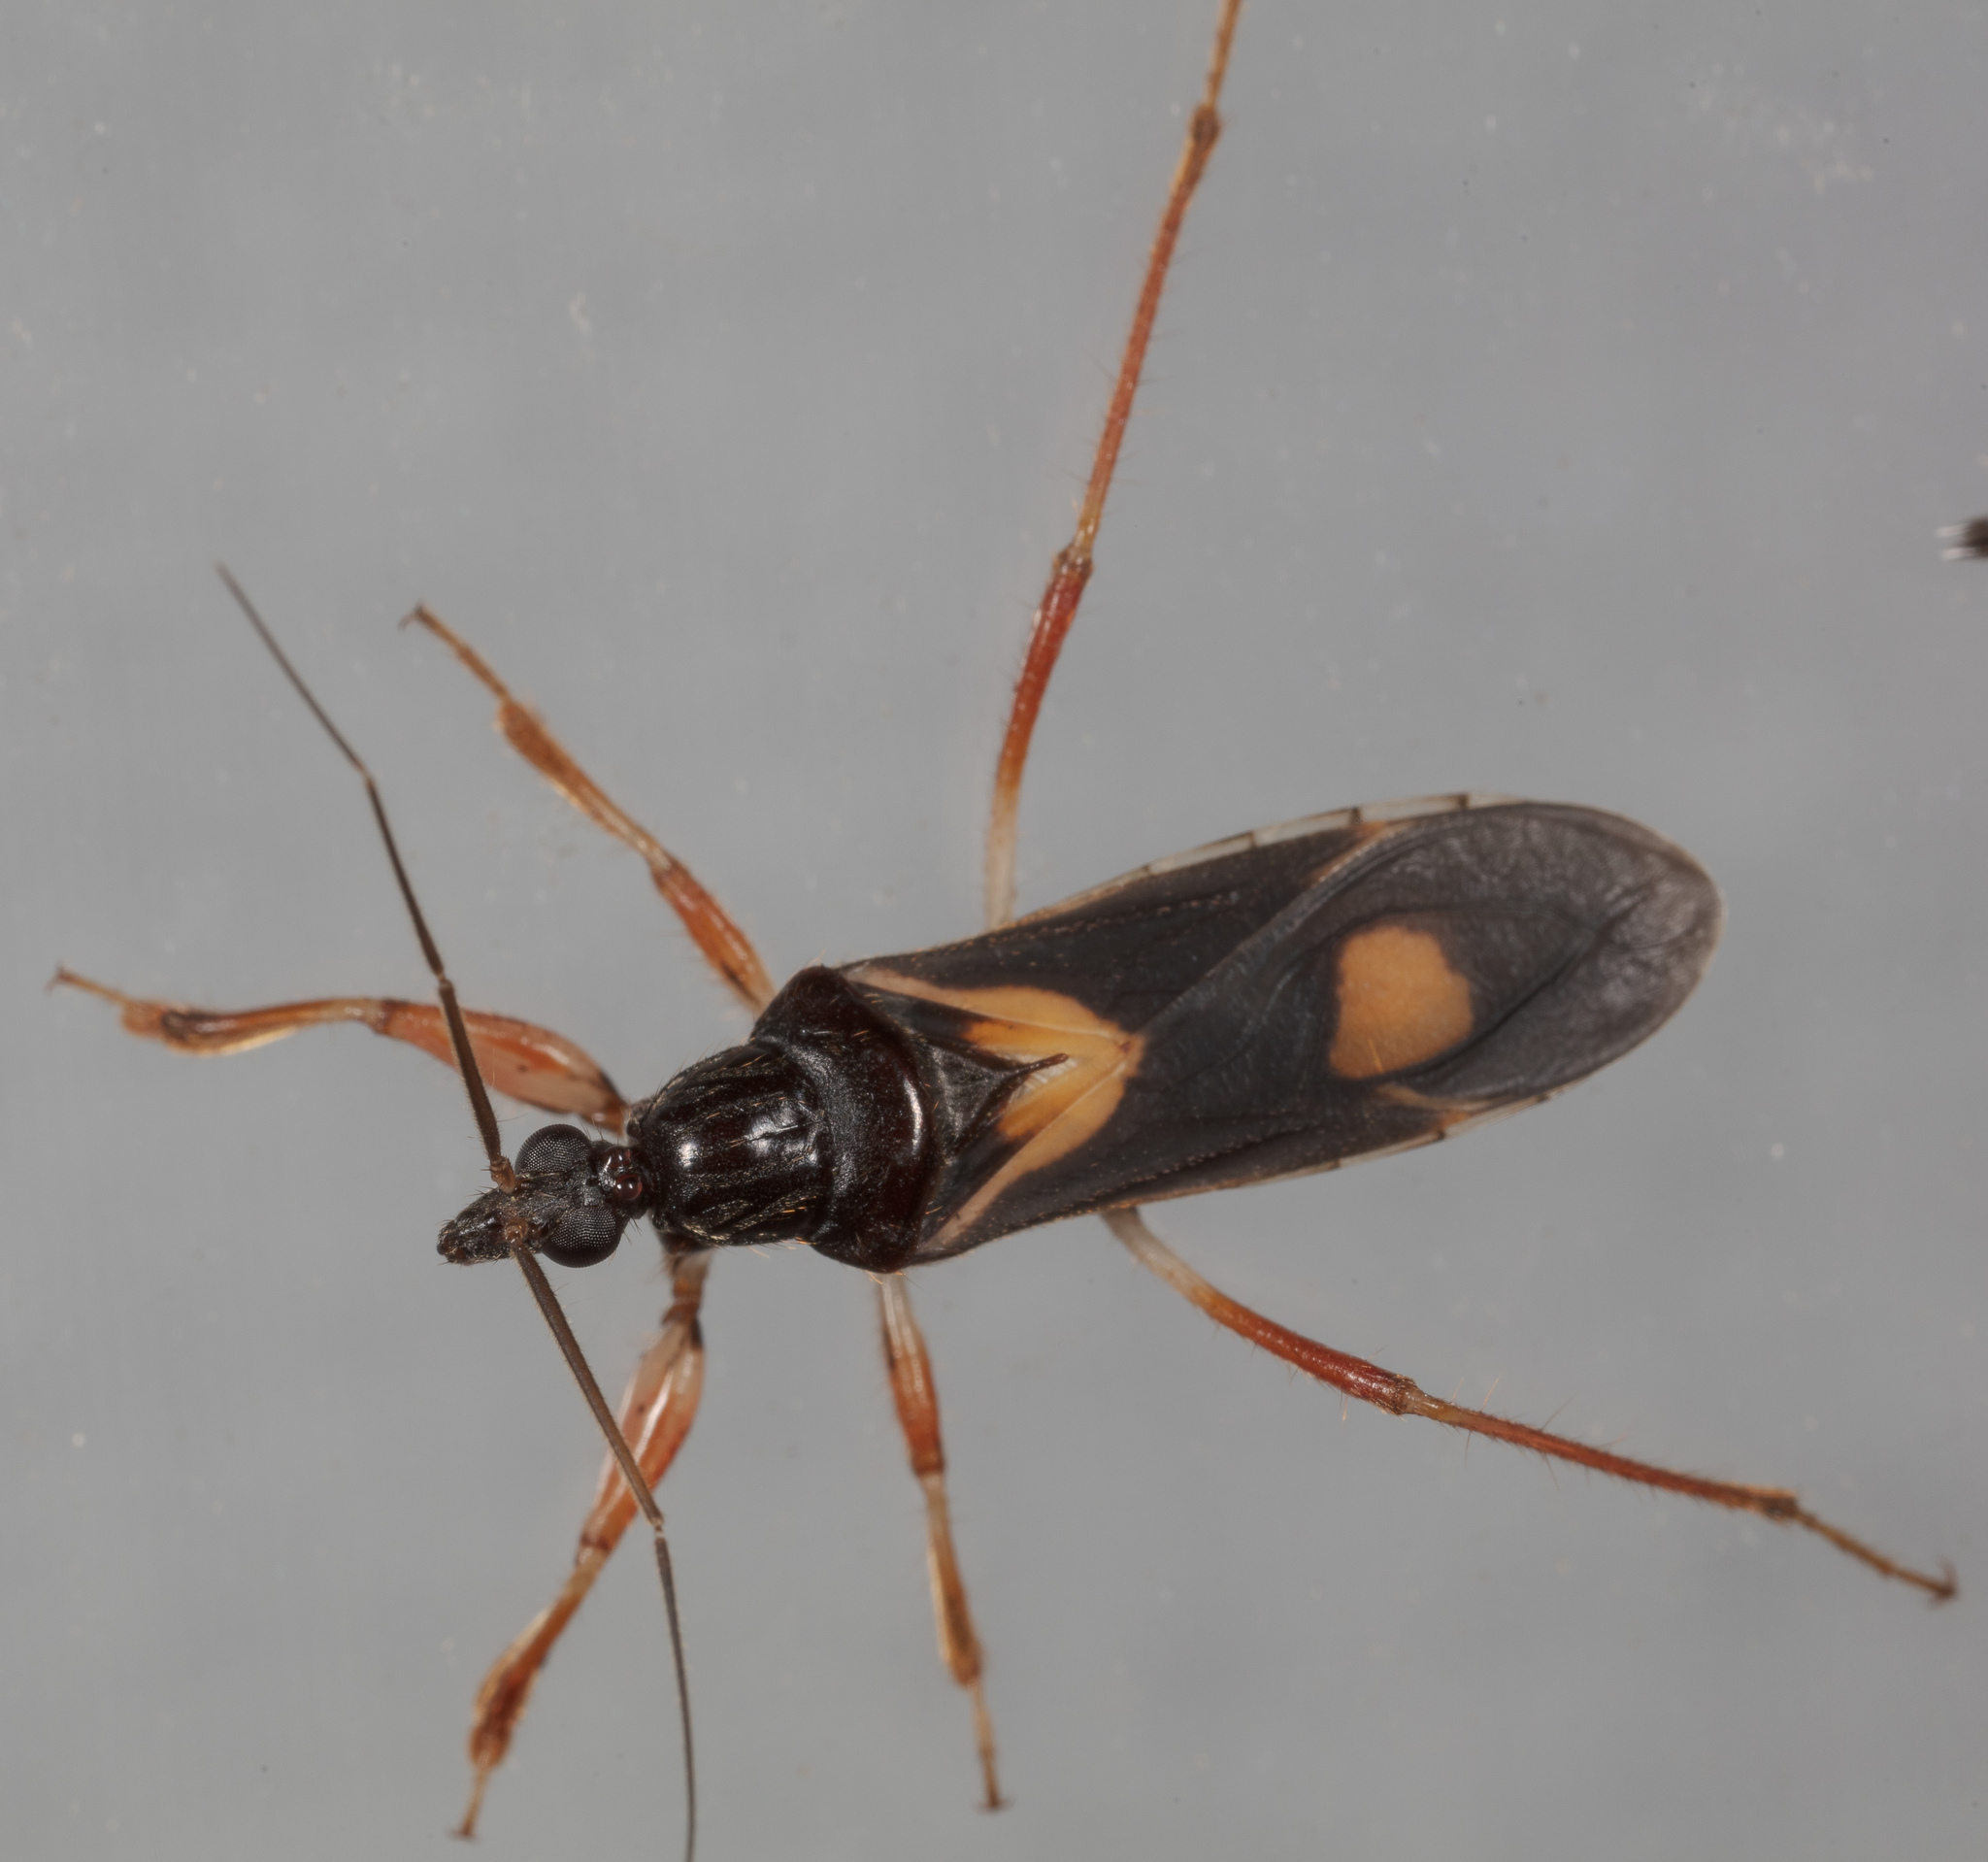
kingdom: Animalia
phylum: Arthropoda
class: Insecta
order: Hemiptera
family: Reduviidae
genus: Rasahus
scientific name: Rasahus hamatus
